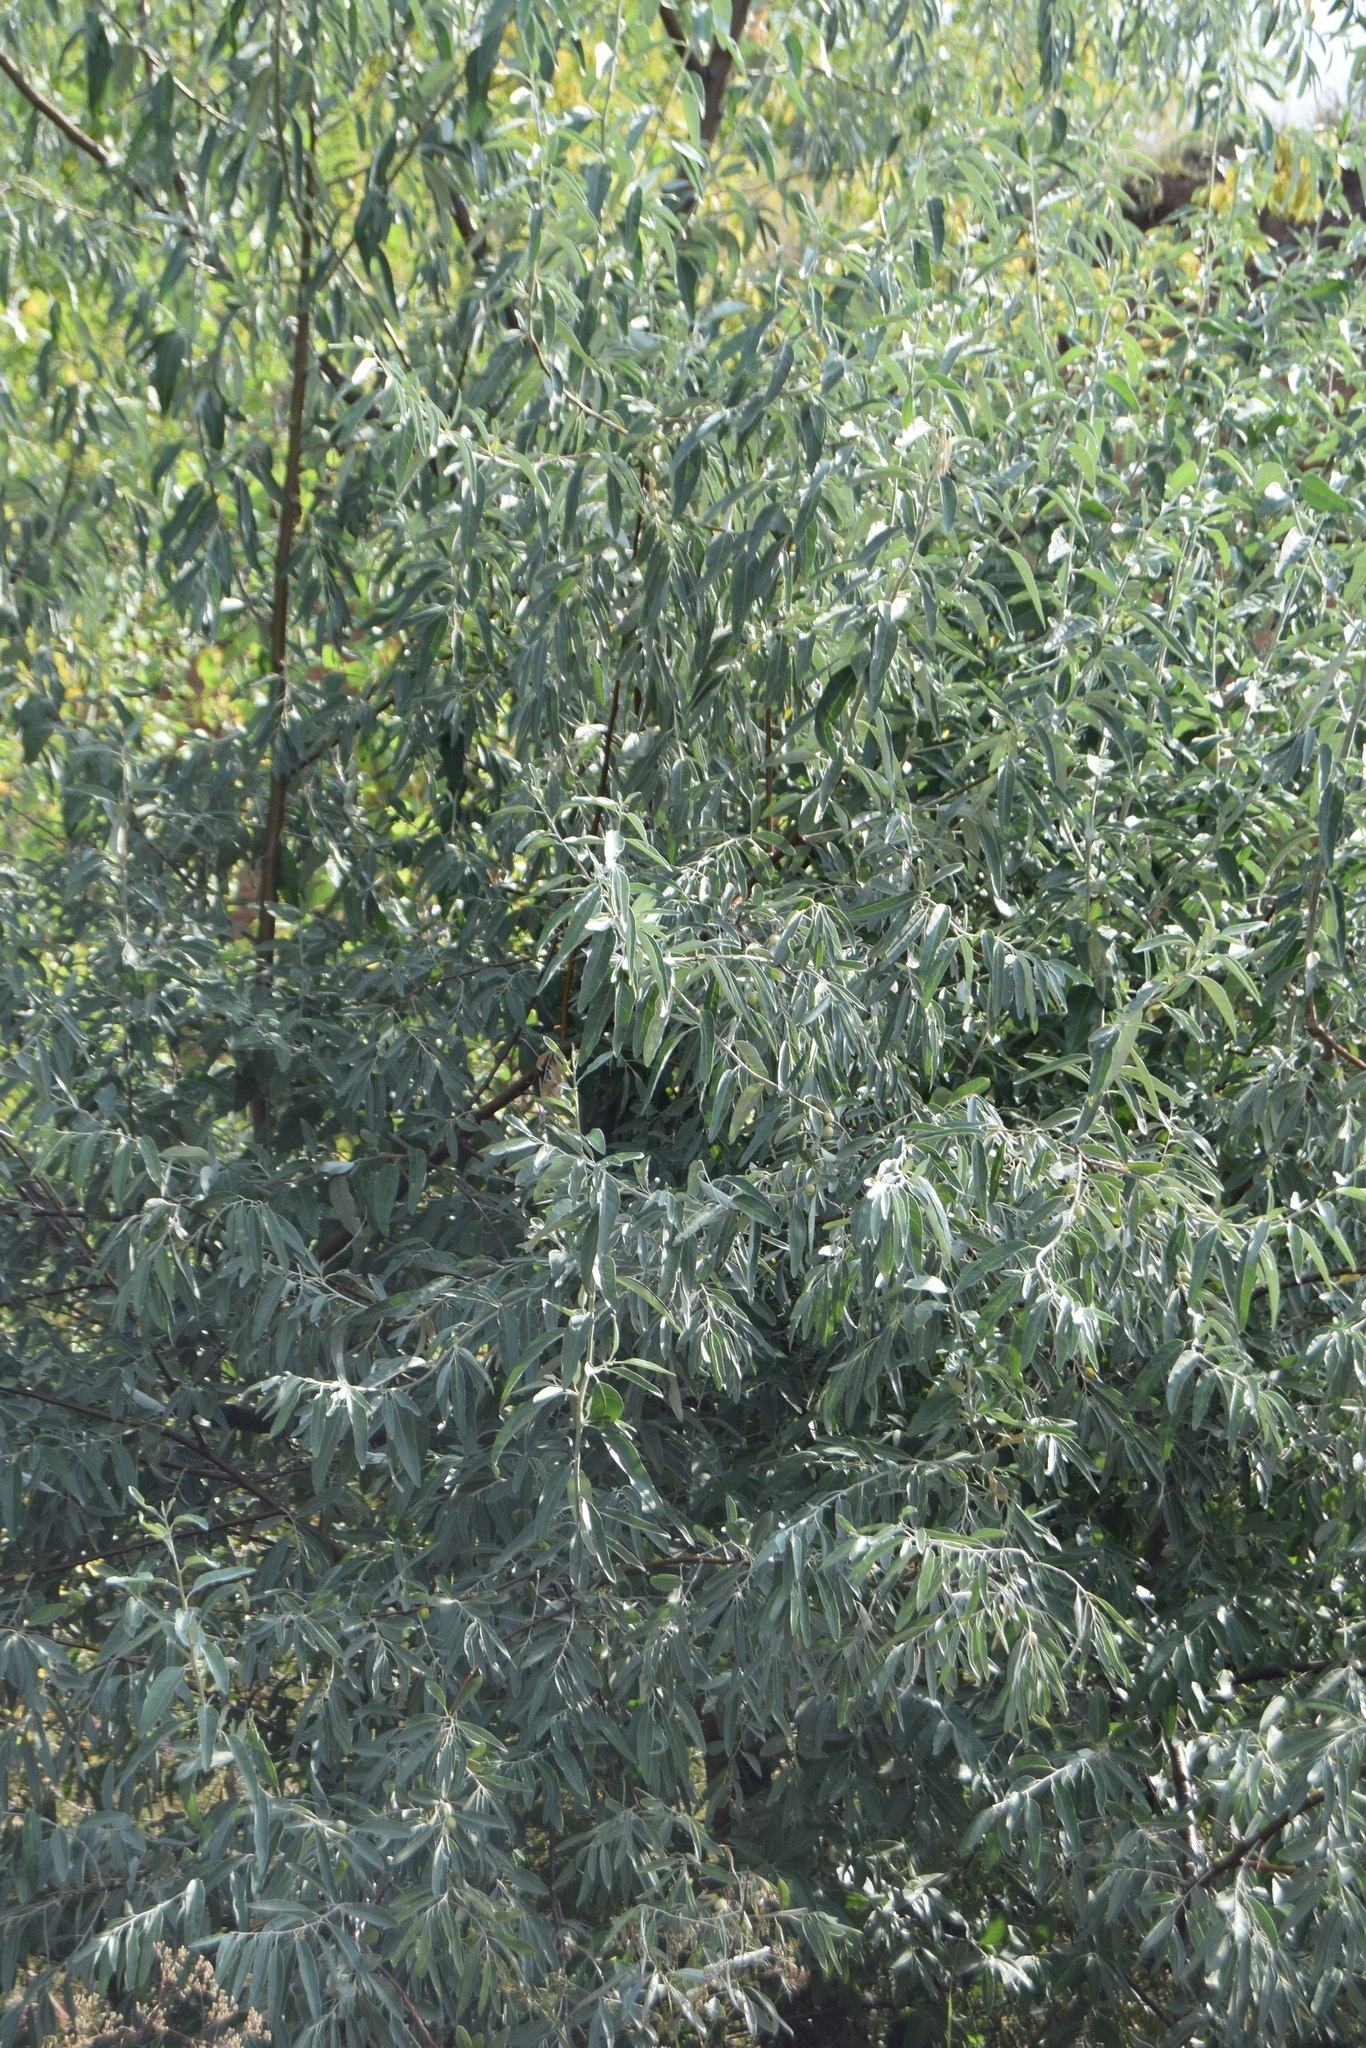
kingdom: Plantae
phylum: Tracheophyta
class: Magnoliopsida
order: Rosales
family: Elaeagnaceae
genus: Elaeagnus
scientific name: Elaeagnus angustifolia
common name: Russian olive
